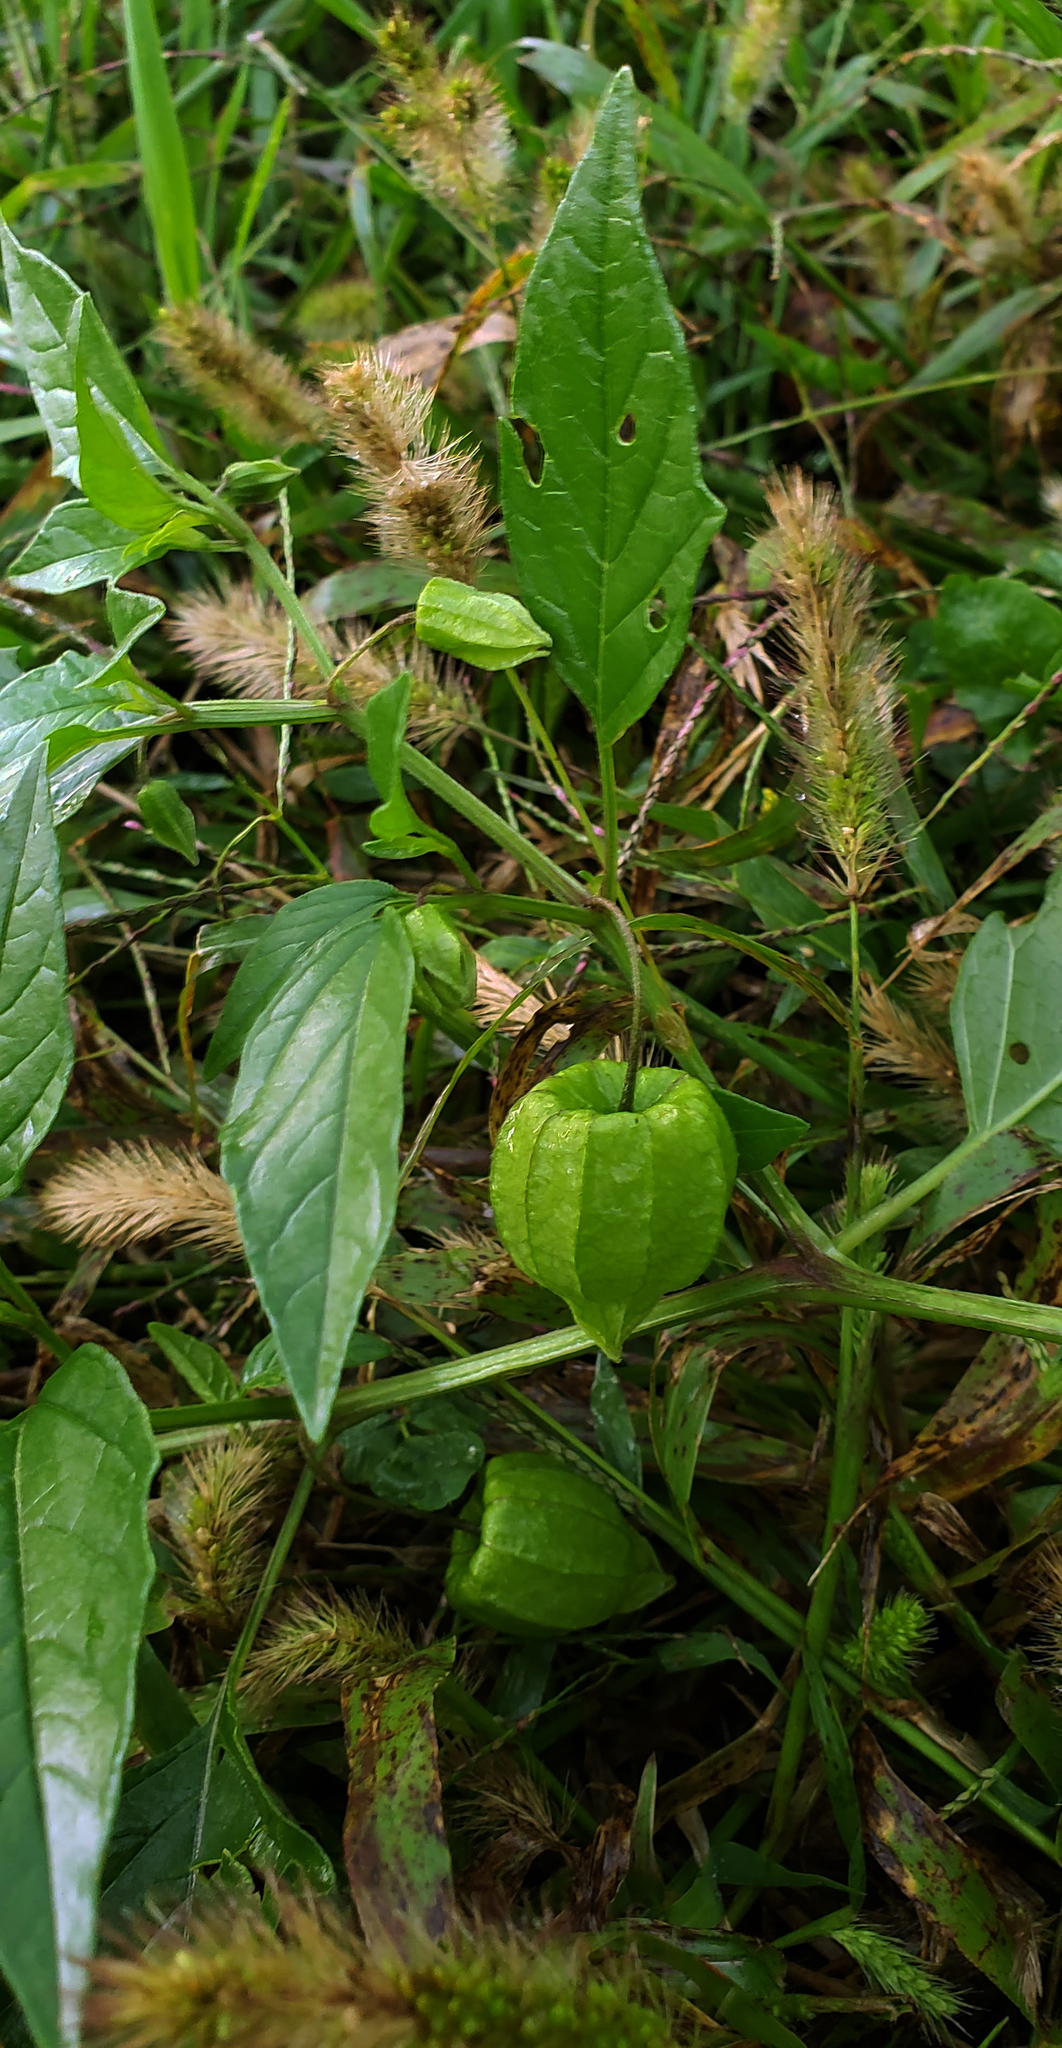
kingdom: Plantae
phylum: Tracheophyta
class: Magnoliopsida
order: Solanales
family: Solanaceae
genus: Physalis
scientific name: Physalis longifolia
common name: Common ground-cherry
